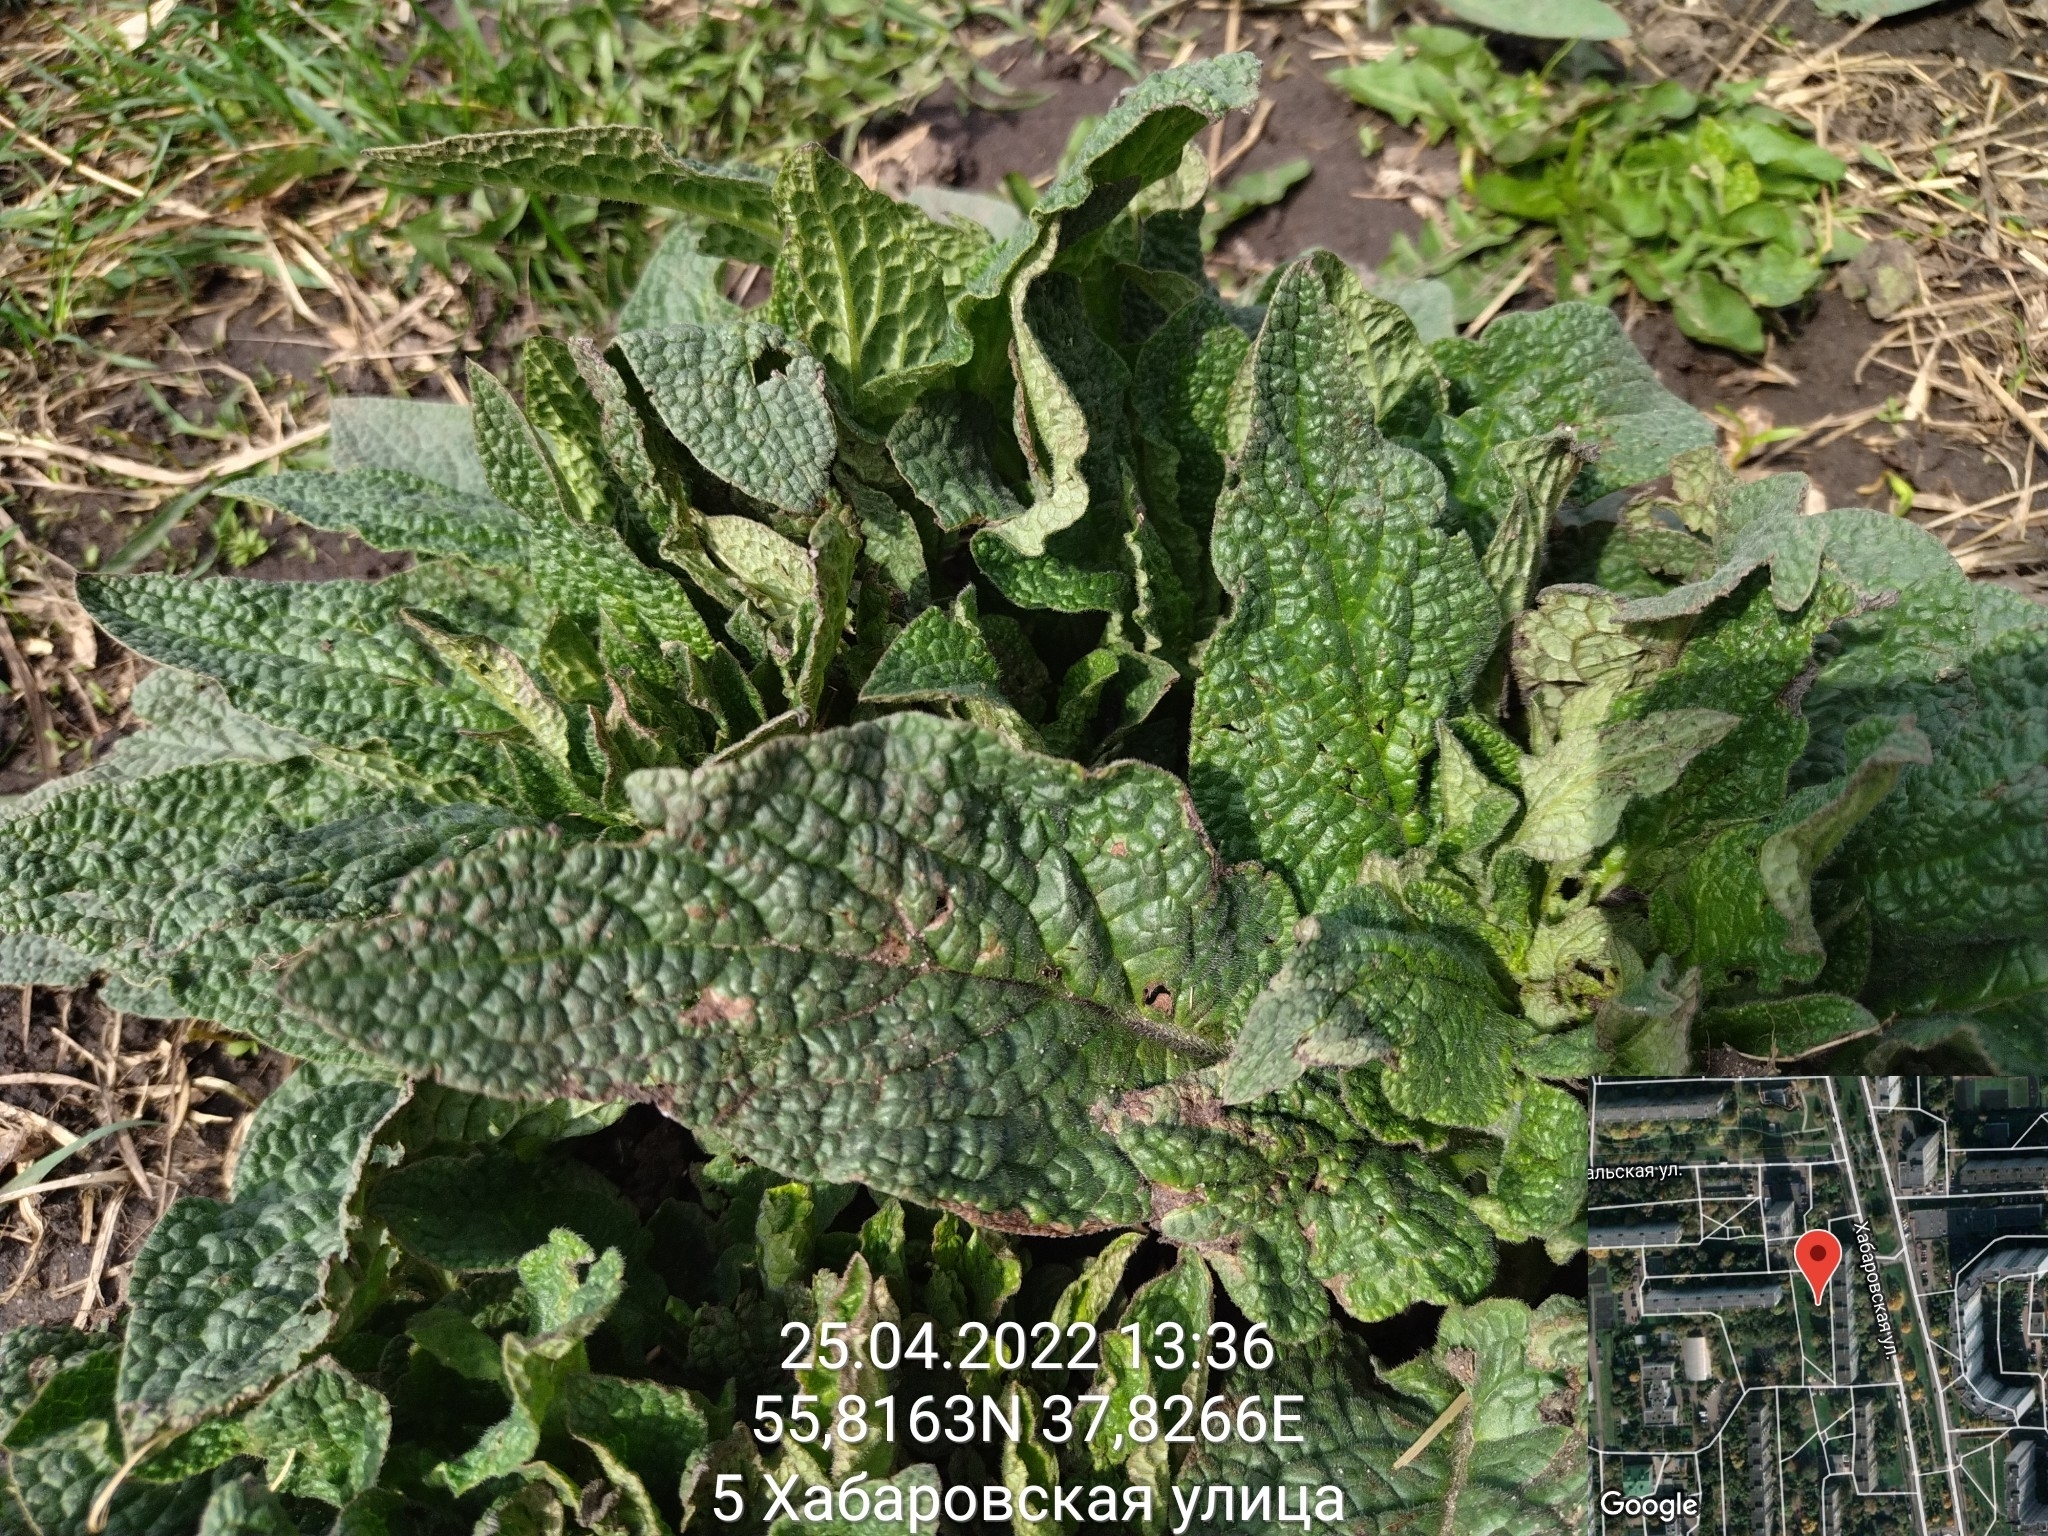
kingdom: Plantae
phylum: Tracheophyta
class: Magnoliopsida
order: Boraginales
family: Boraginaceae
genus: Symphytum
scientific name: Symphytum
